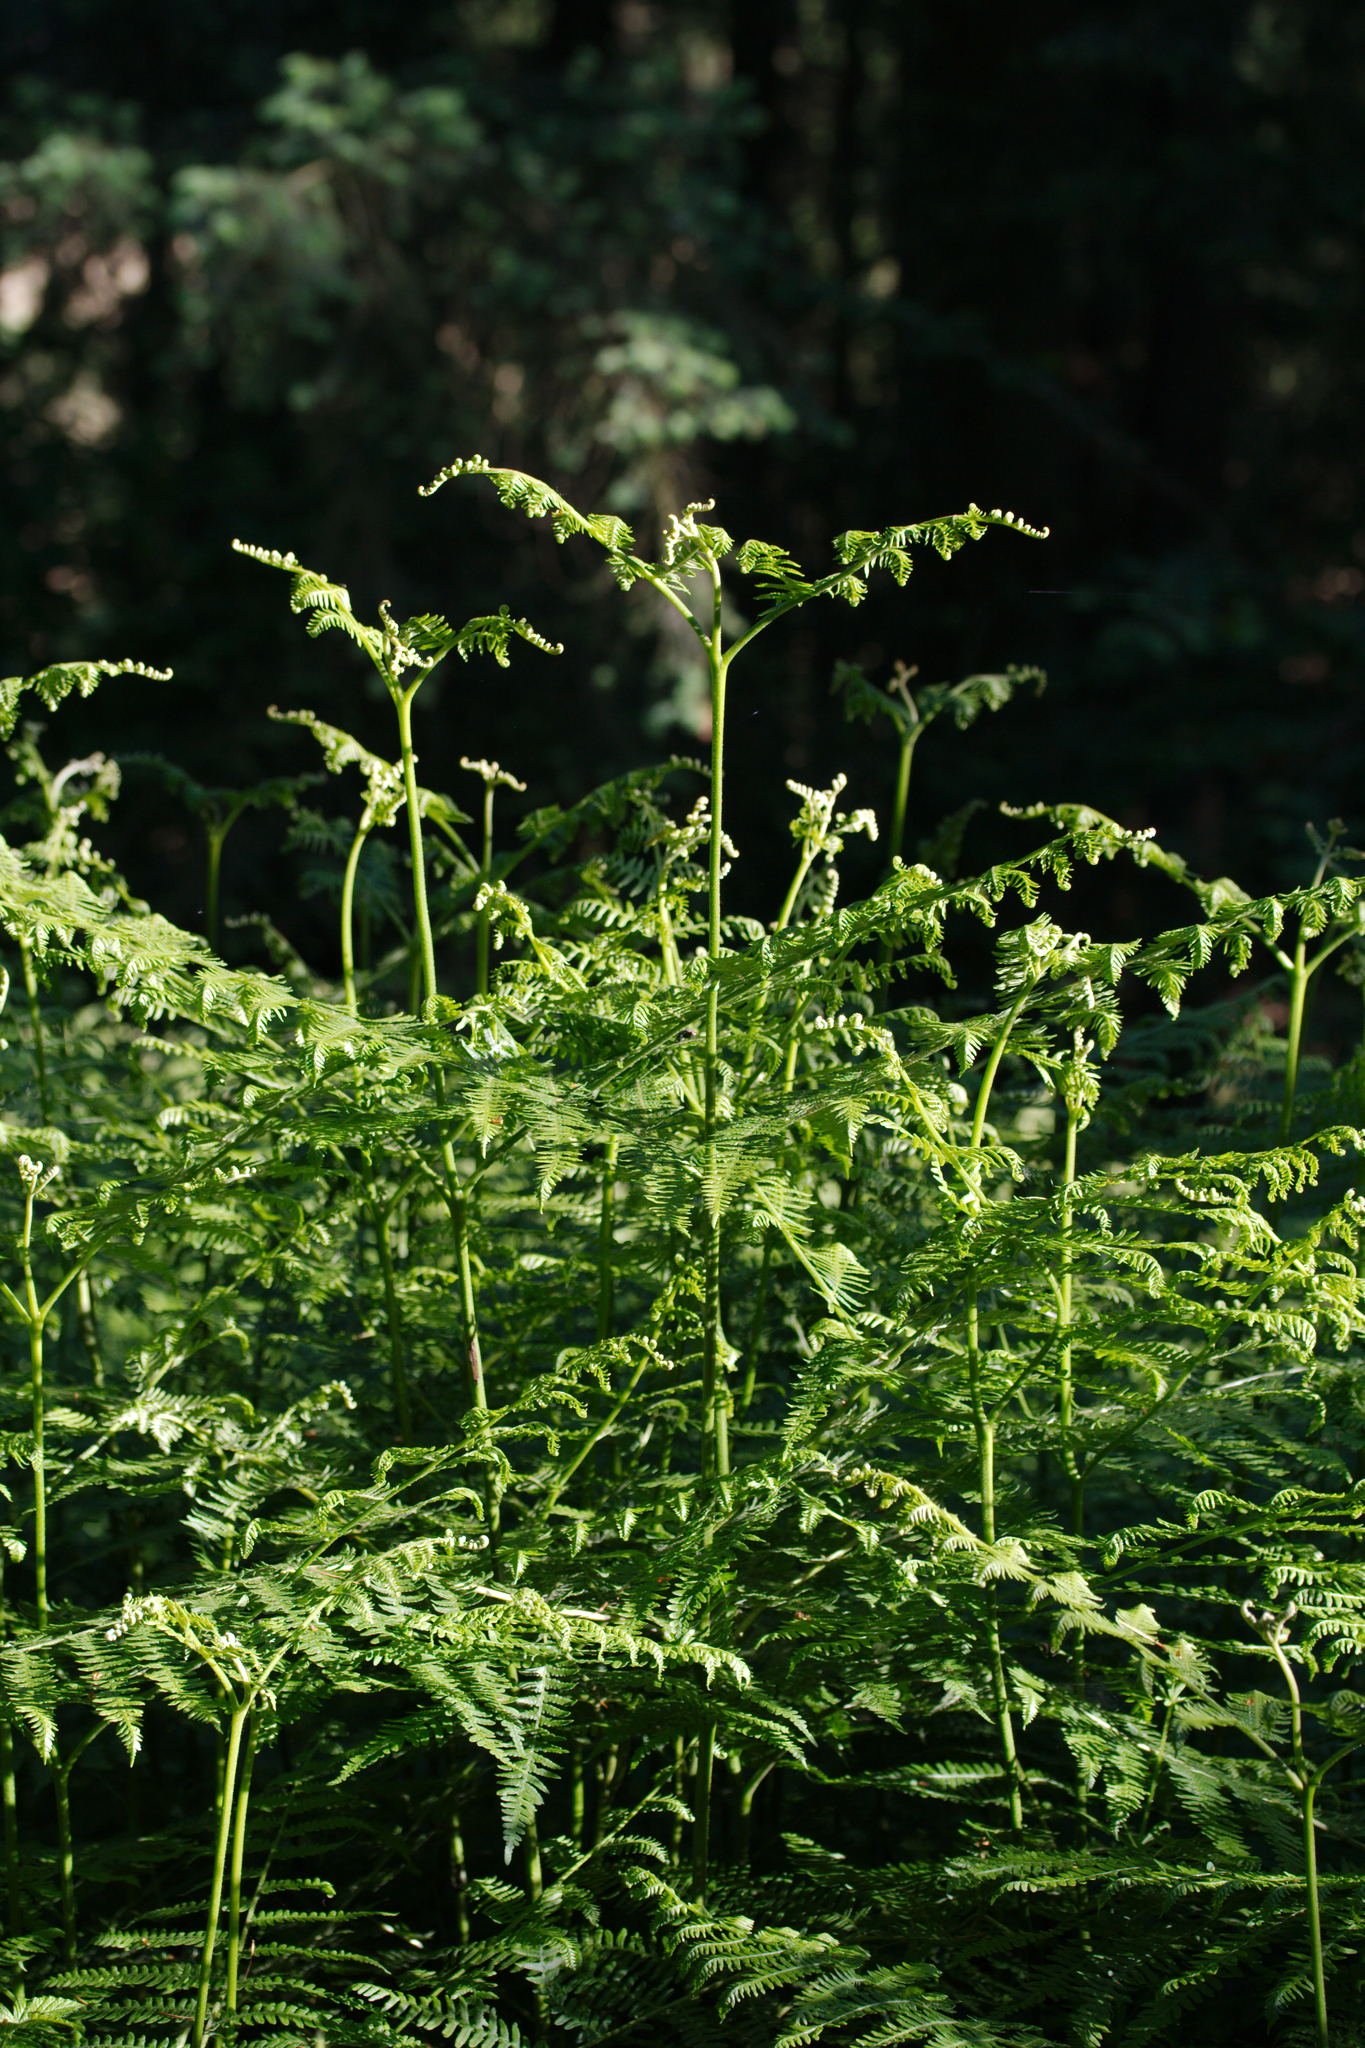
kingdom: Plantae
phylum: Tracheophyta
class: Polypodiopsida
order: Polypodiales
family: Dennstaedtiaceae
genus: Pteridium
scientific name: Pteridium aquilinum
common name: Bracken
